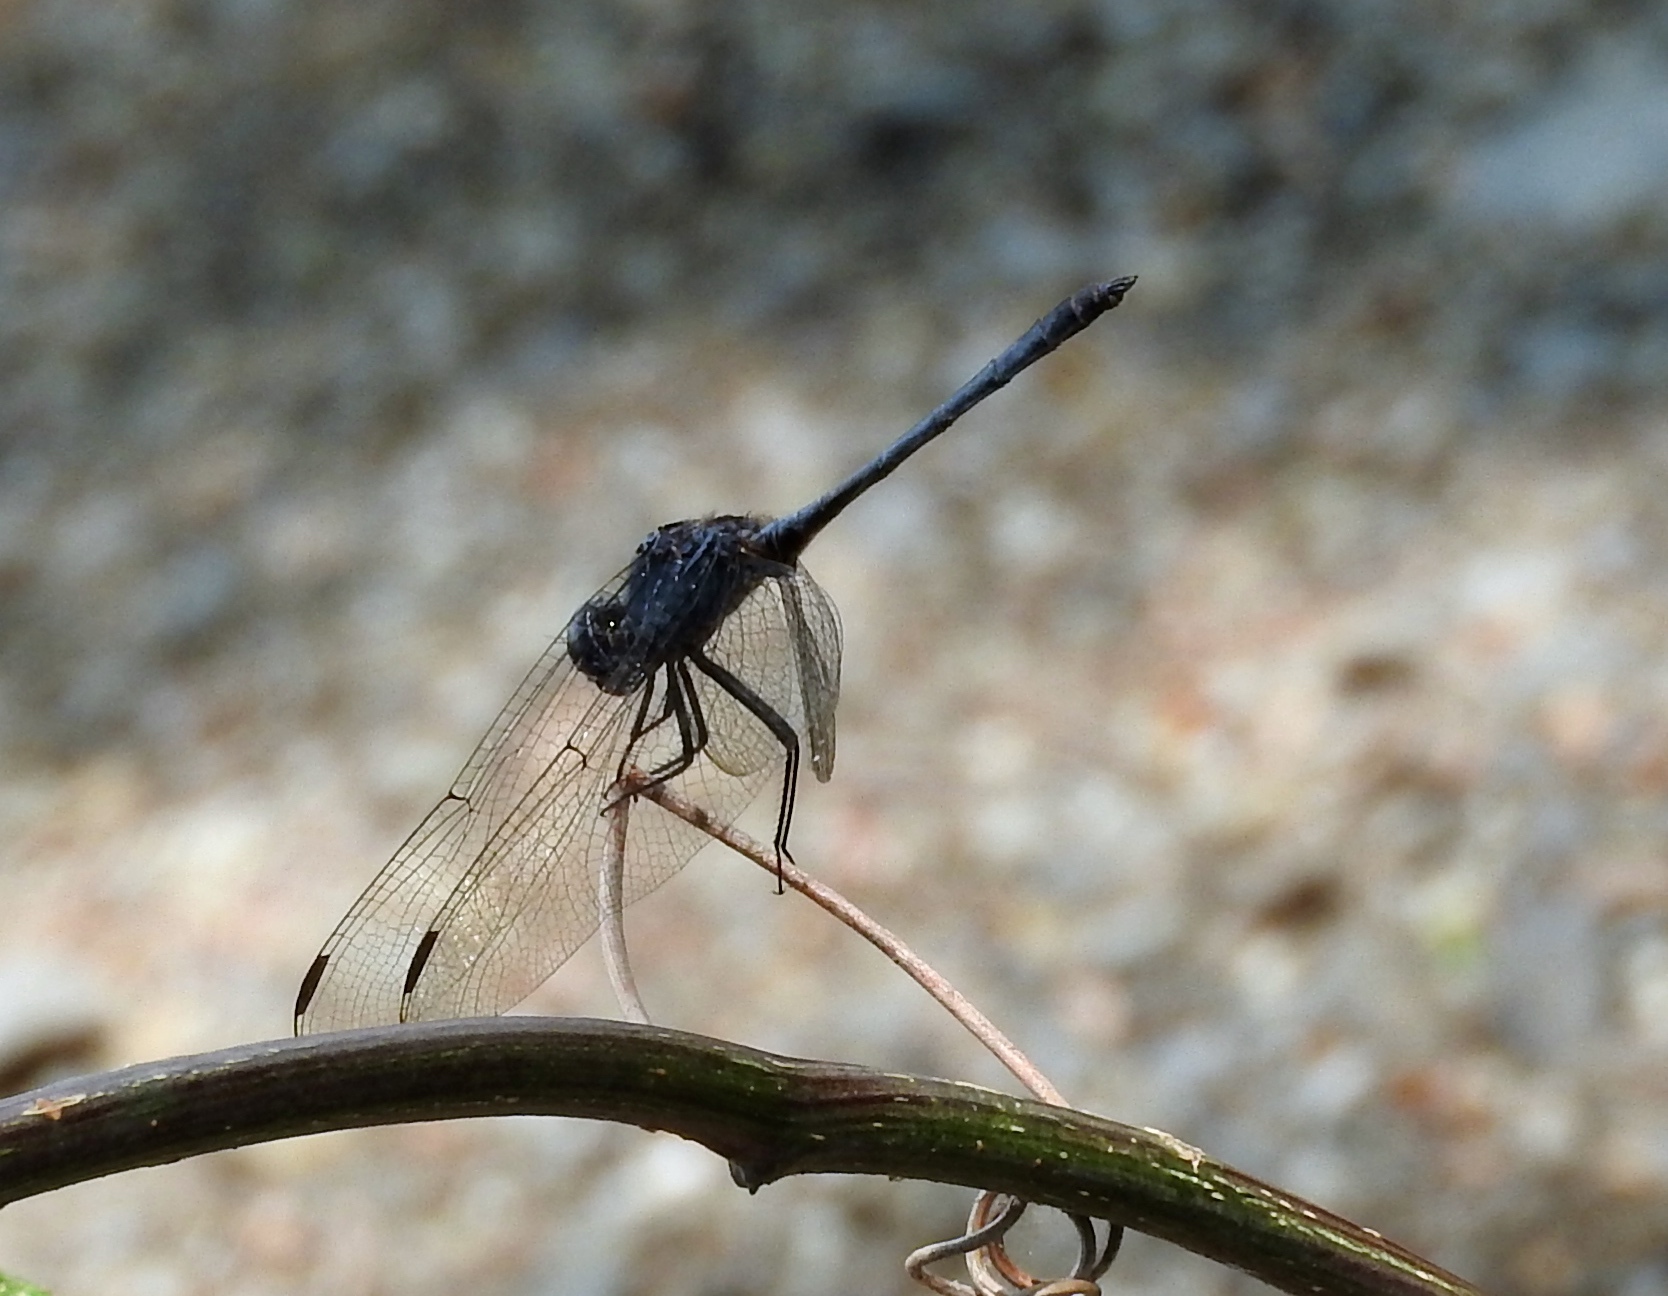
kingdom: Animalia
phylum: Arthropoda
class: Insecta
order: Odonata
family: Libellulidae
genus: Dythemis
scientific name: Dythemis nigrescens
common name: Black setwing
